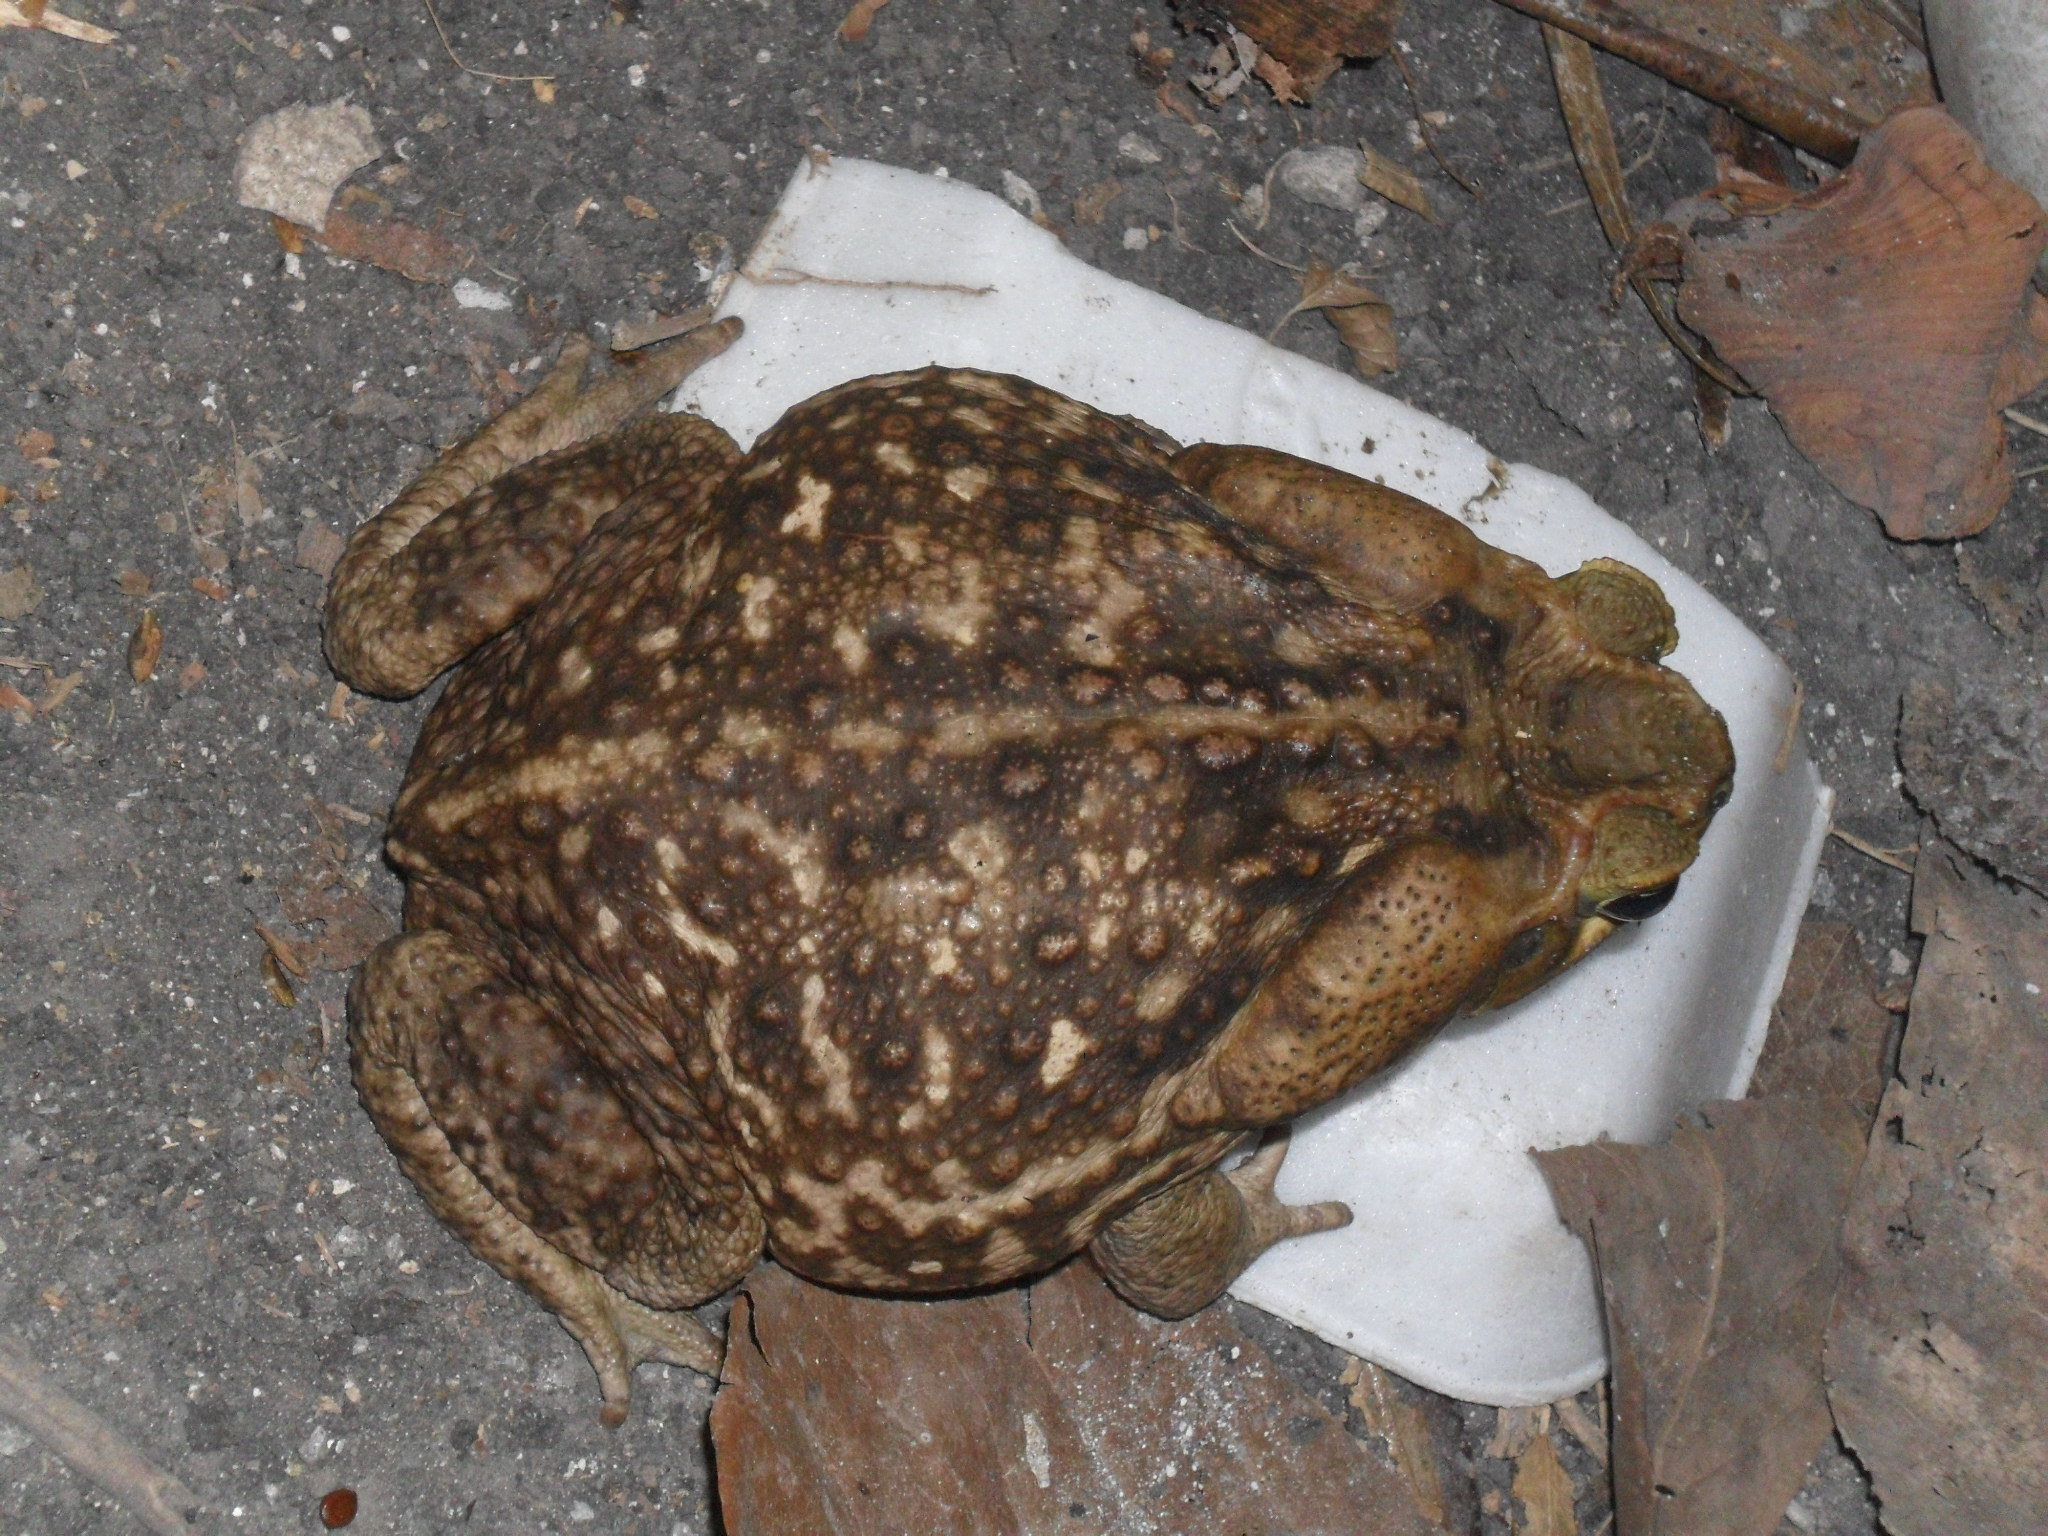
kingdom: Animalia
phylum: Chordata
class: Amphibia
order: Anura
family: Bufonidae
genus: Rhinella
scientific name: Rhinella horribilis
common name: Mesoamerican cane toad
